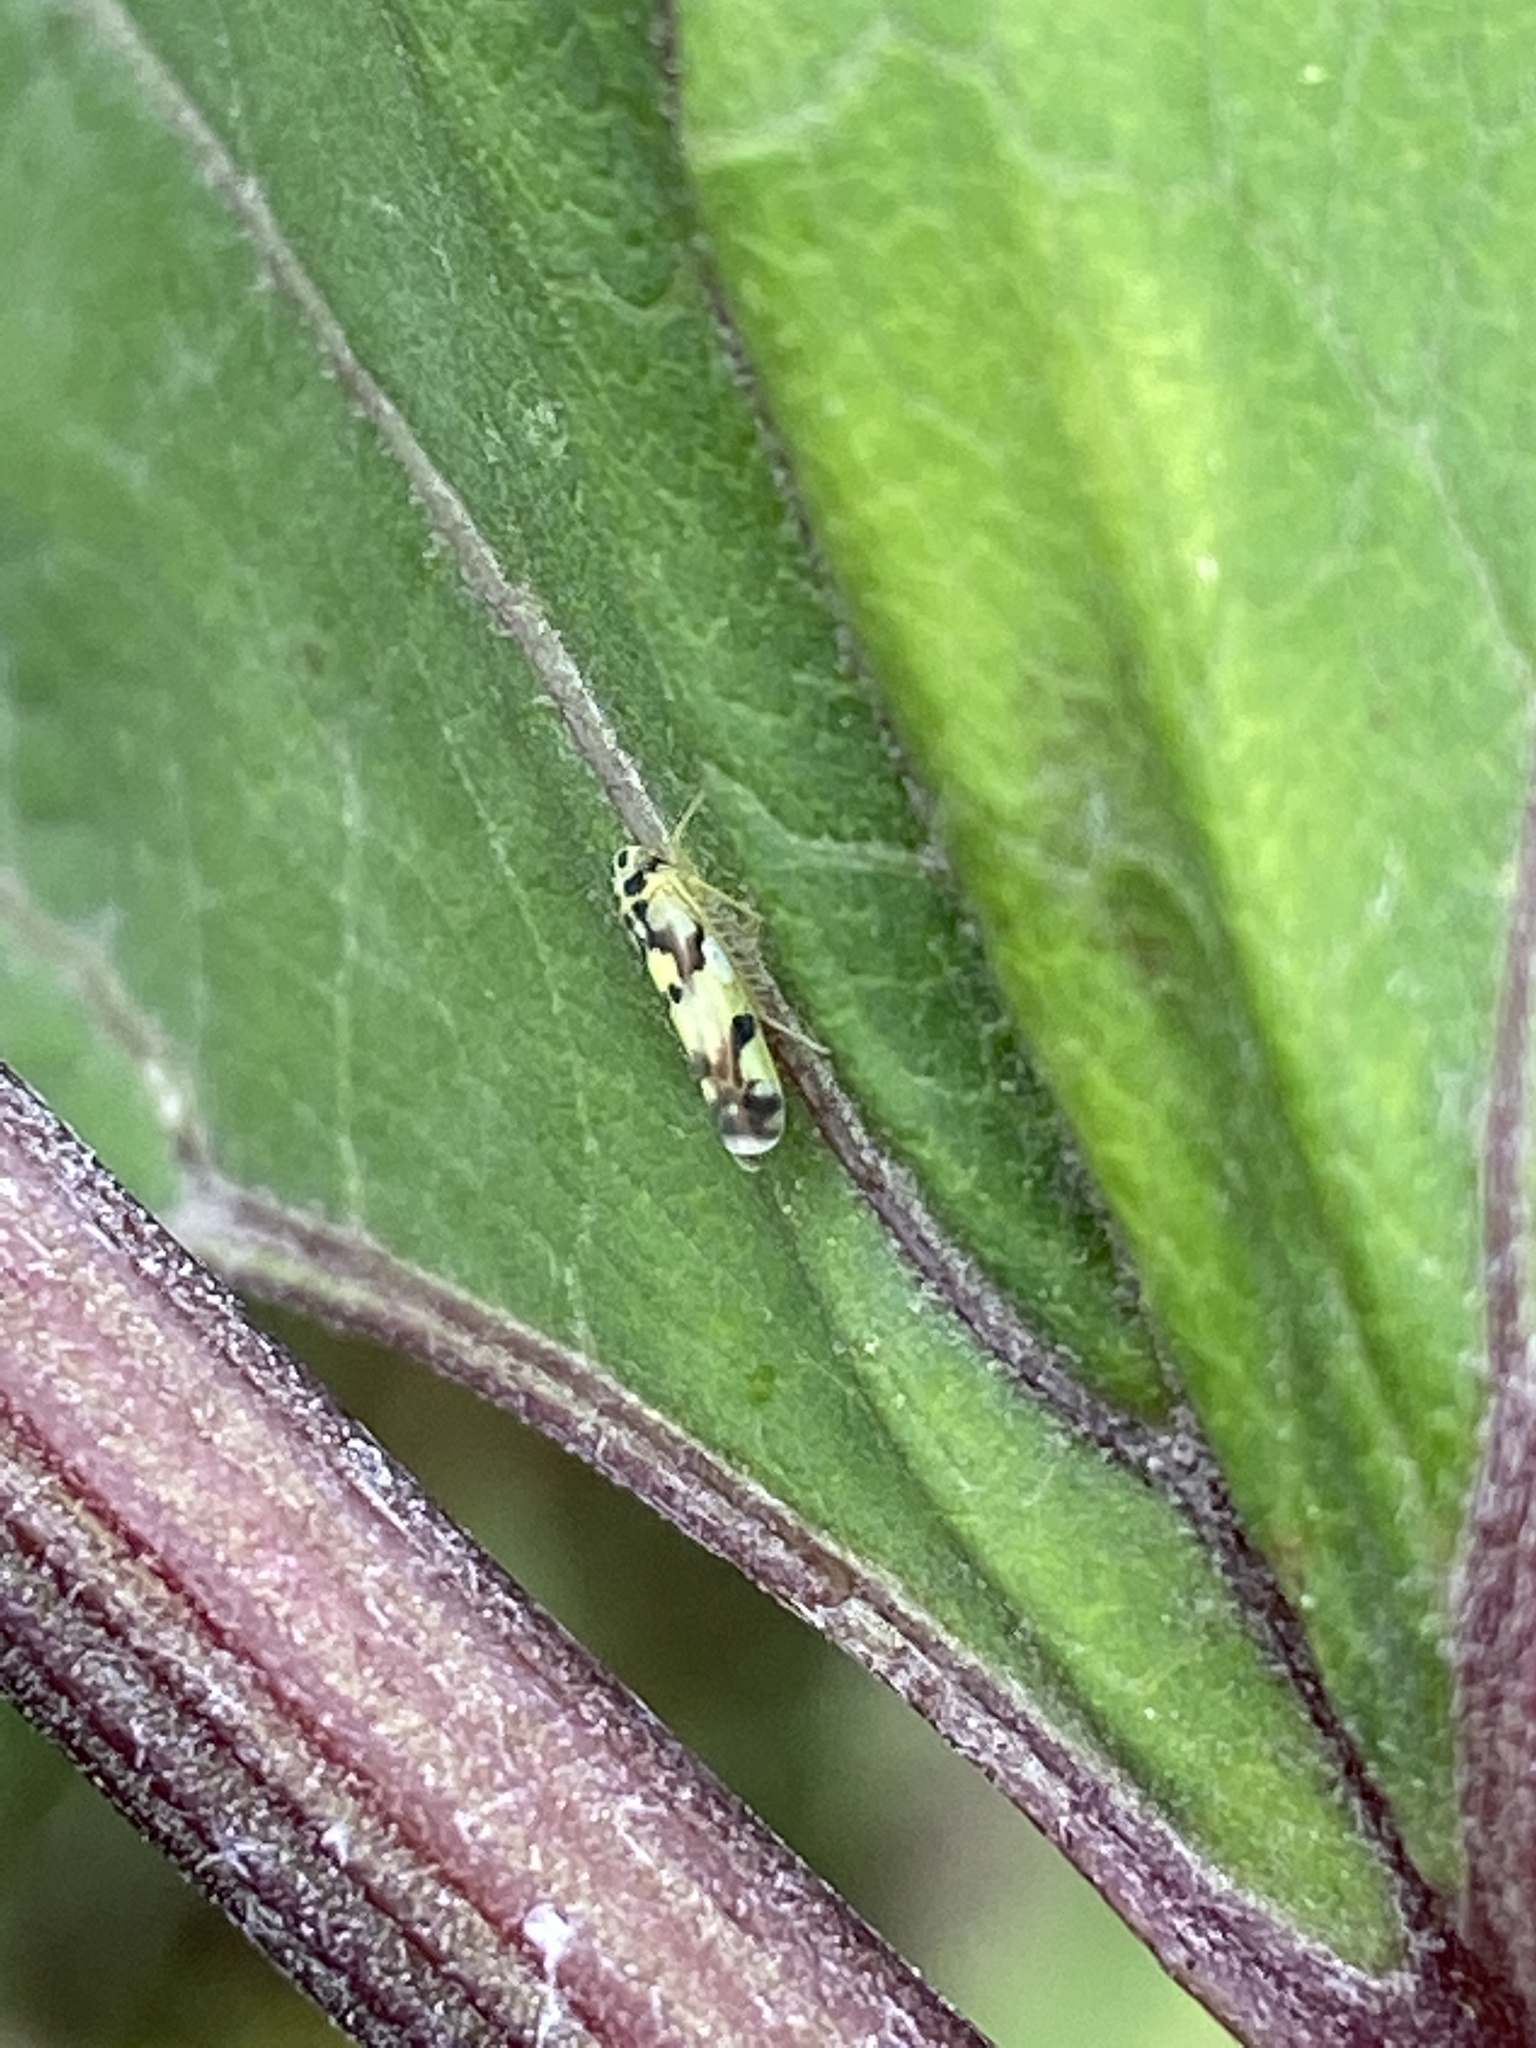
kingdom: Animalia
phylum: Arthropoda
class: Insecta
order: Hemiptera
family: Cicadellidae
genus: Eupteryx
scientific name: Eupteryx aurata
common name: Leafhopper
